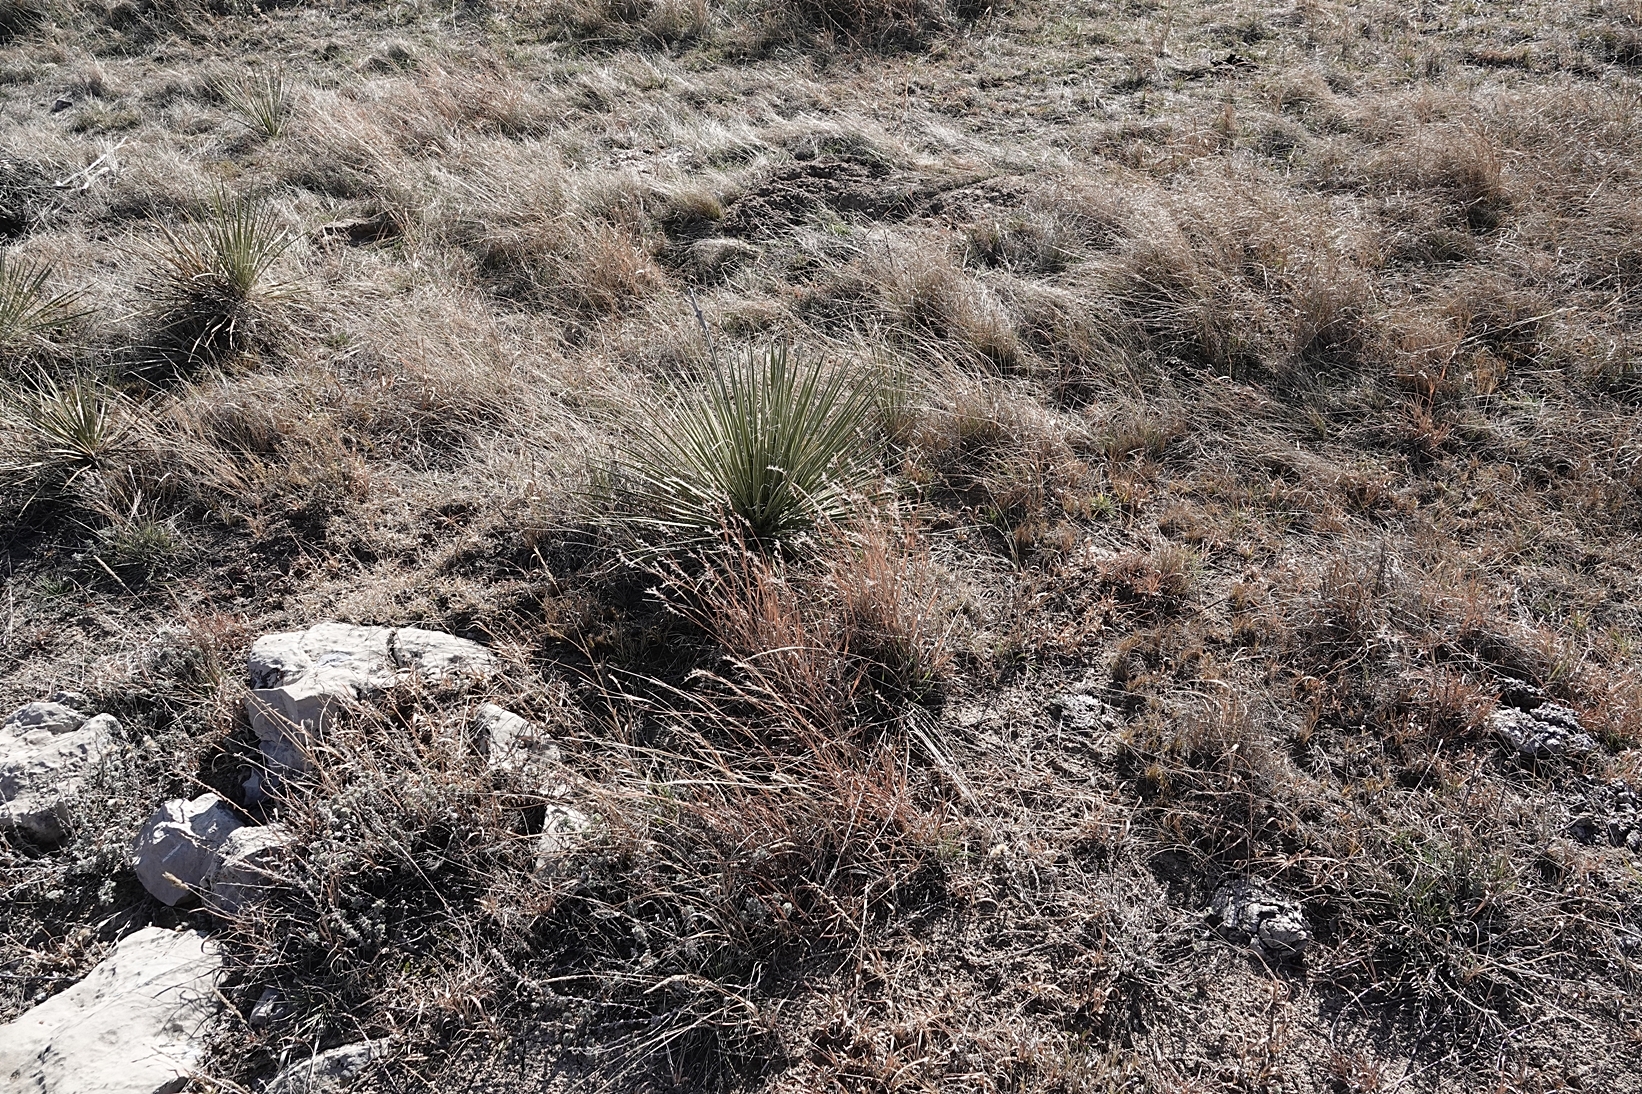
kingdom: Plantae
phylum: Tracheophyta
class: Liliopsida
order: Poales
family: Poaceae
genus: Schizachyrium
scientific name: Schizachyrium scoparium
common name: Little bluestem
